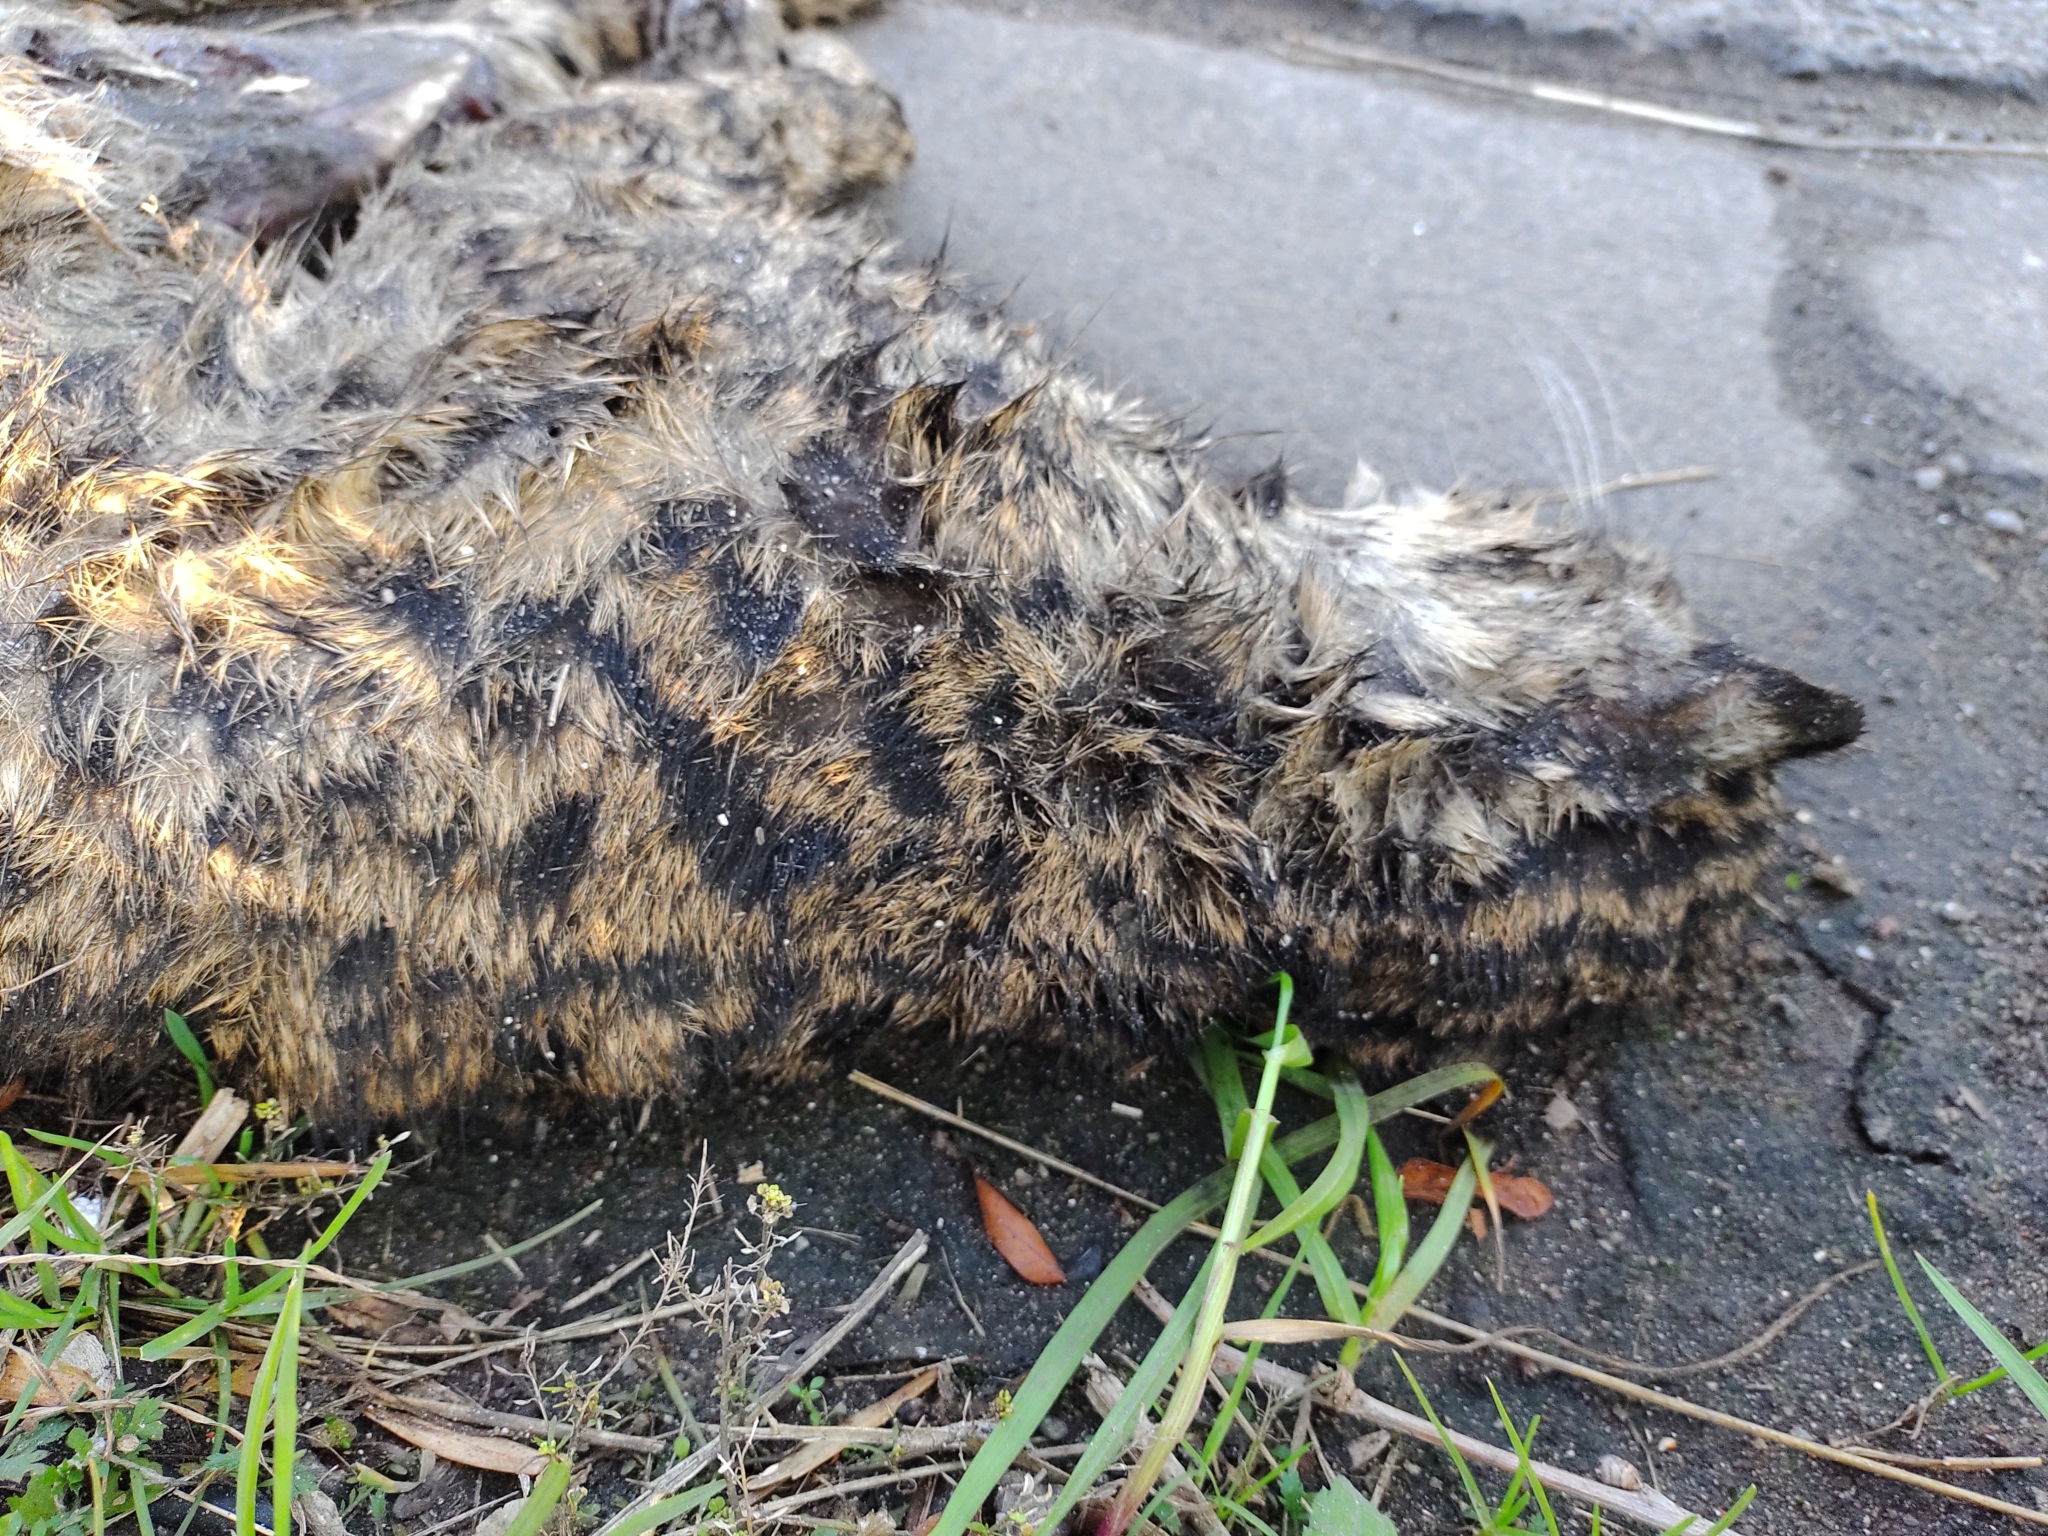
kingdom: Animalia
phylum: Chordata
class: Mammalia
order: Carnivora
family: Felidae
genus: Leopardus
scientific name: Leopardus geoffroyi
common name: Geoffroy's cat
